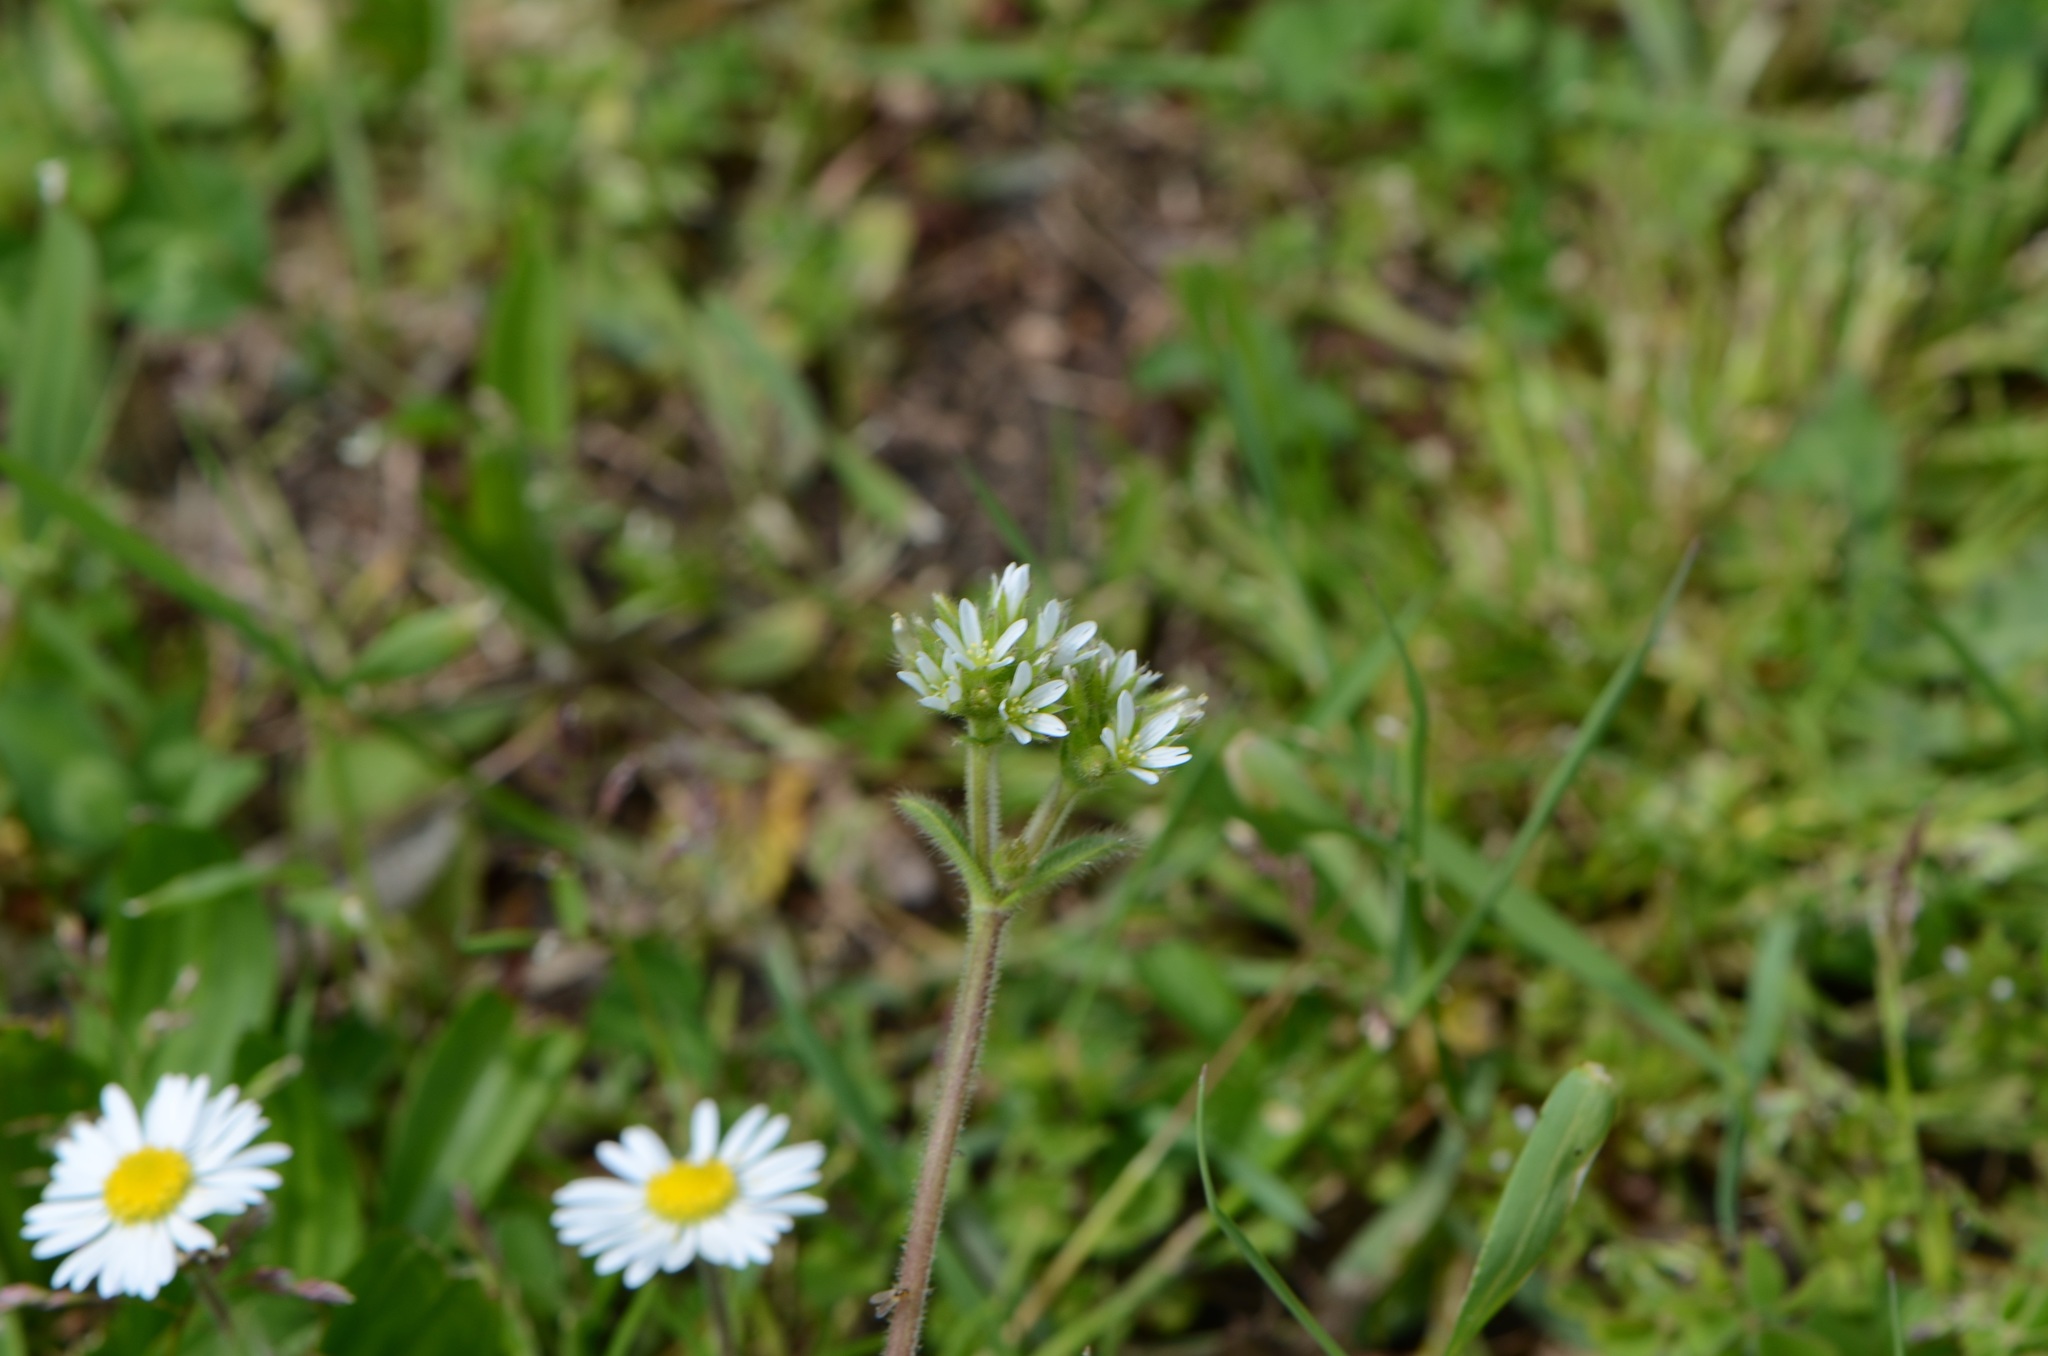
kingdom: Plantae
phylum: Tracheophyta
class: Magnoliopsida
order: Caryophyllales
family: Caryophyllaceae
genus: Cerastium
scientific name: Cerastium glomeratum
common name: Sticky chickweed
